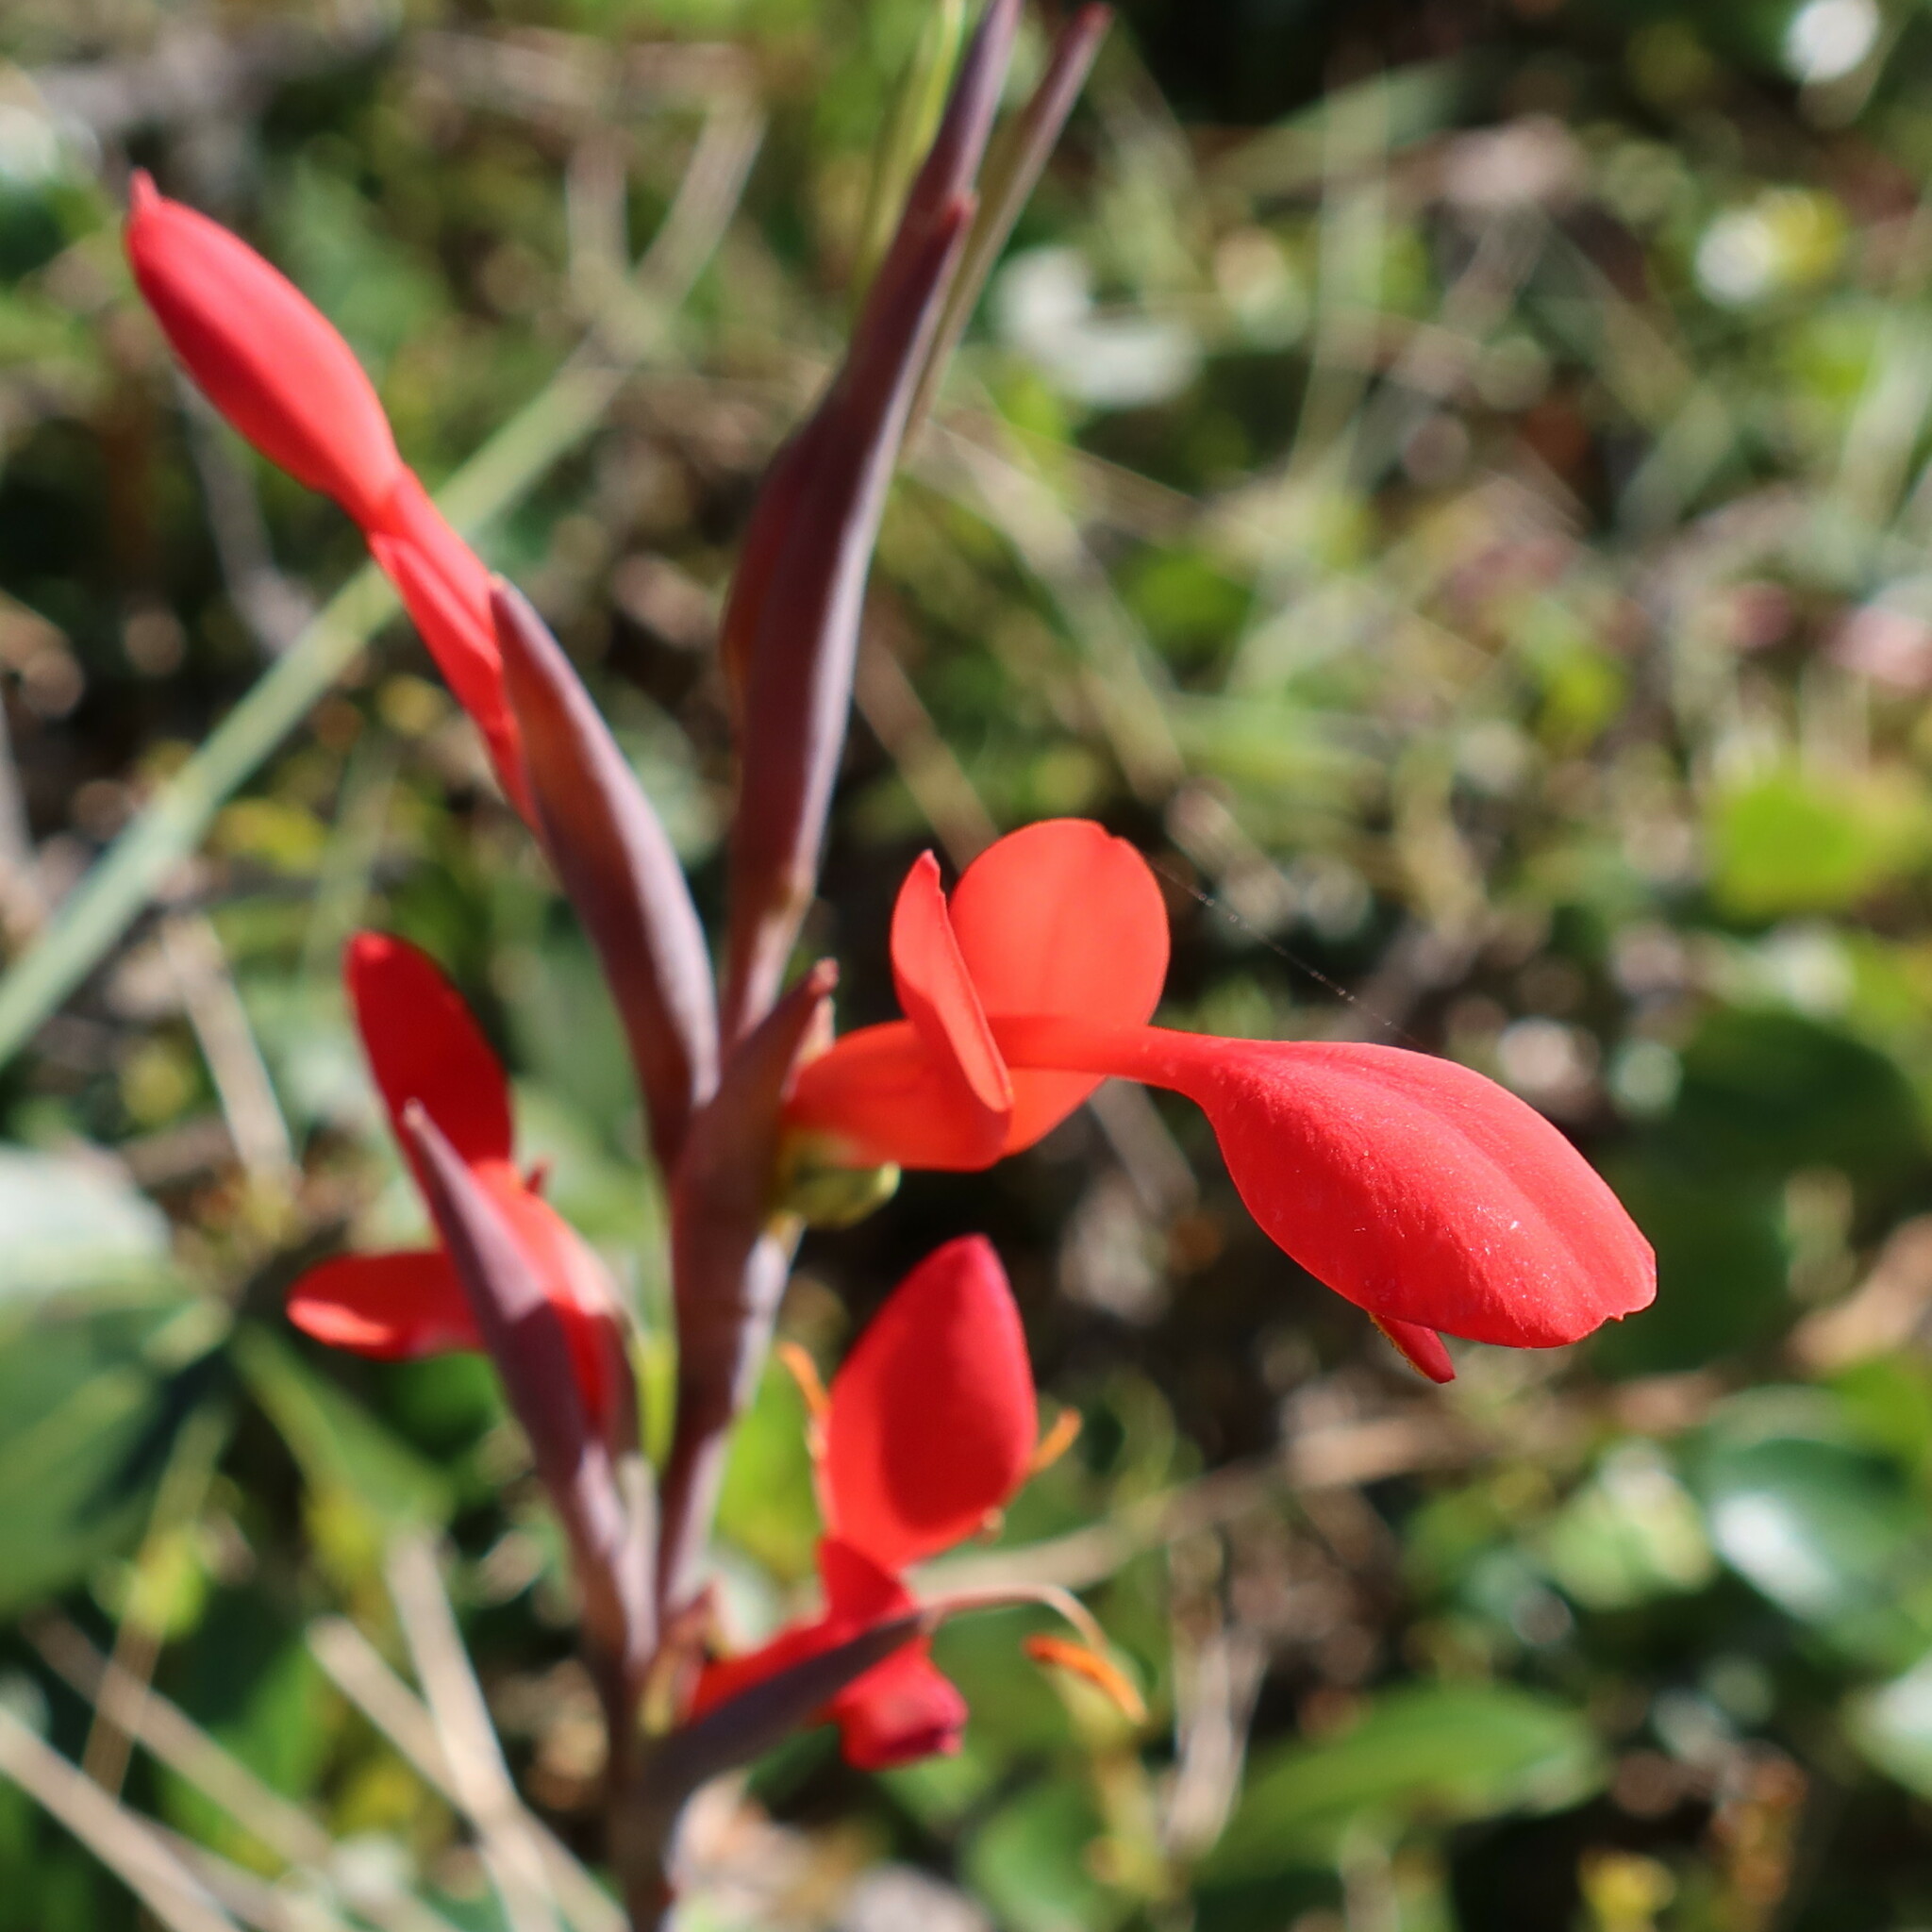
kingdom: Plantae
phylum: Tracheophyta
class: Liliopsida
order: Asparagales
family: Iridaceae
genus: Gladiolus
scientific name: Gladiolus cunonius
